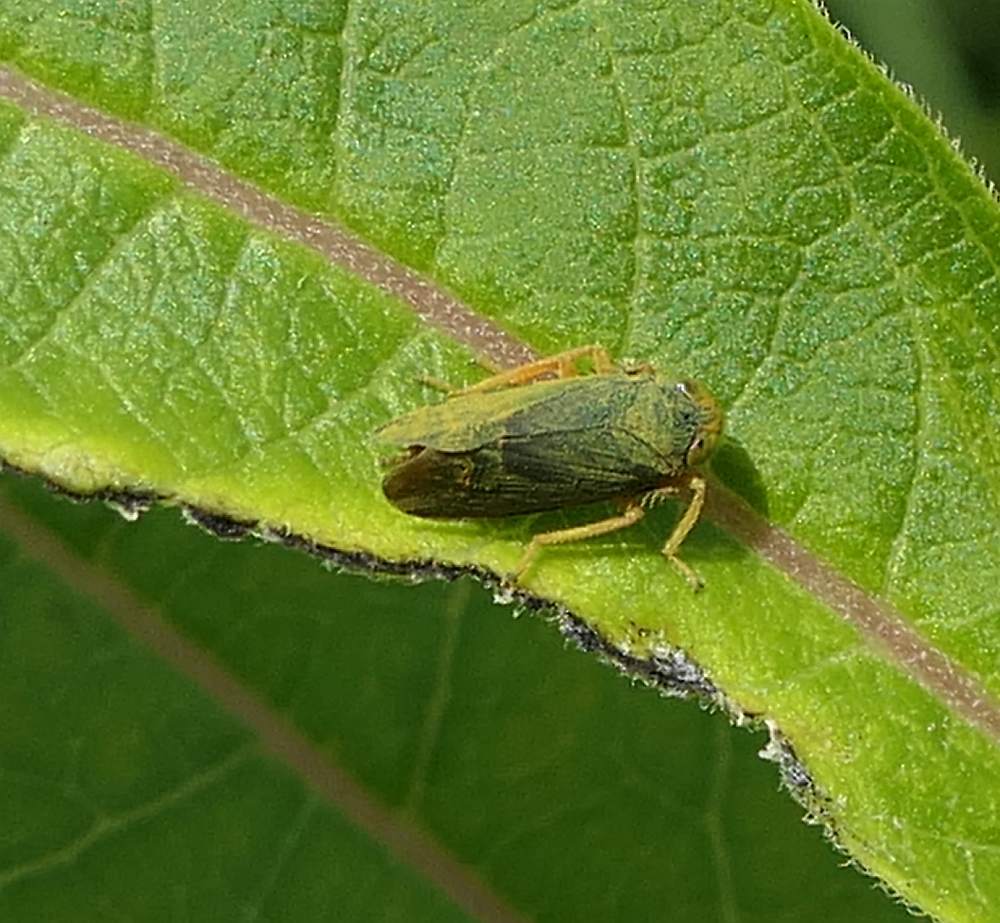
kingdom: Animalia
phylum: Arthropoda
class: Insecta
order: Hemiptera
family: Cicadellidae
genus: Jikradia
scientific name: Jikradia olitoria
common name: Coppery leafhopper
